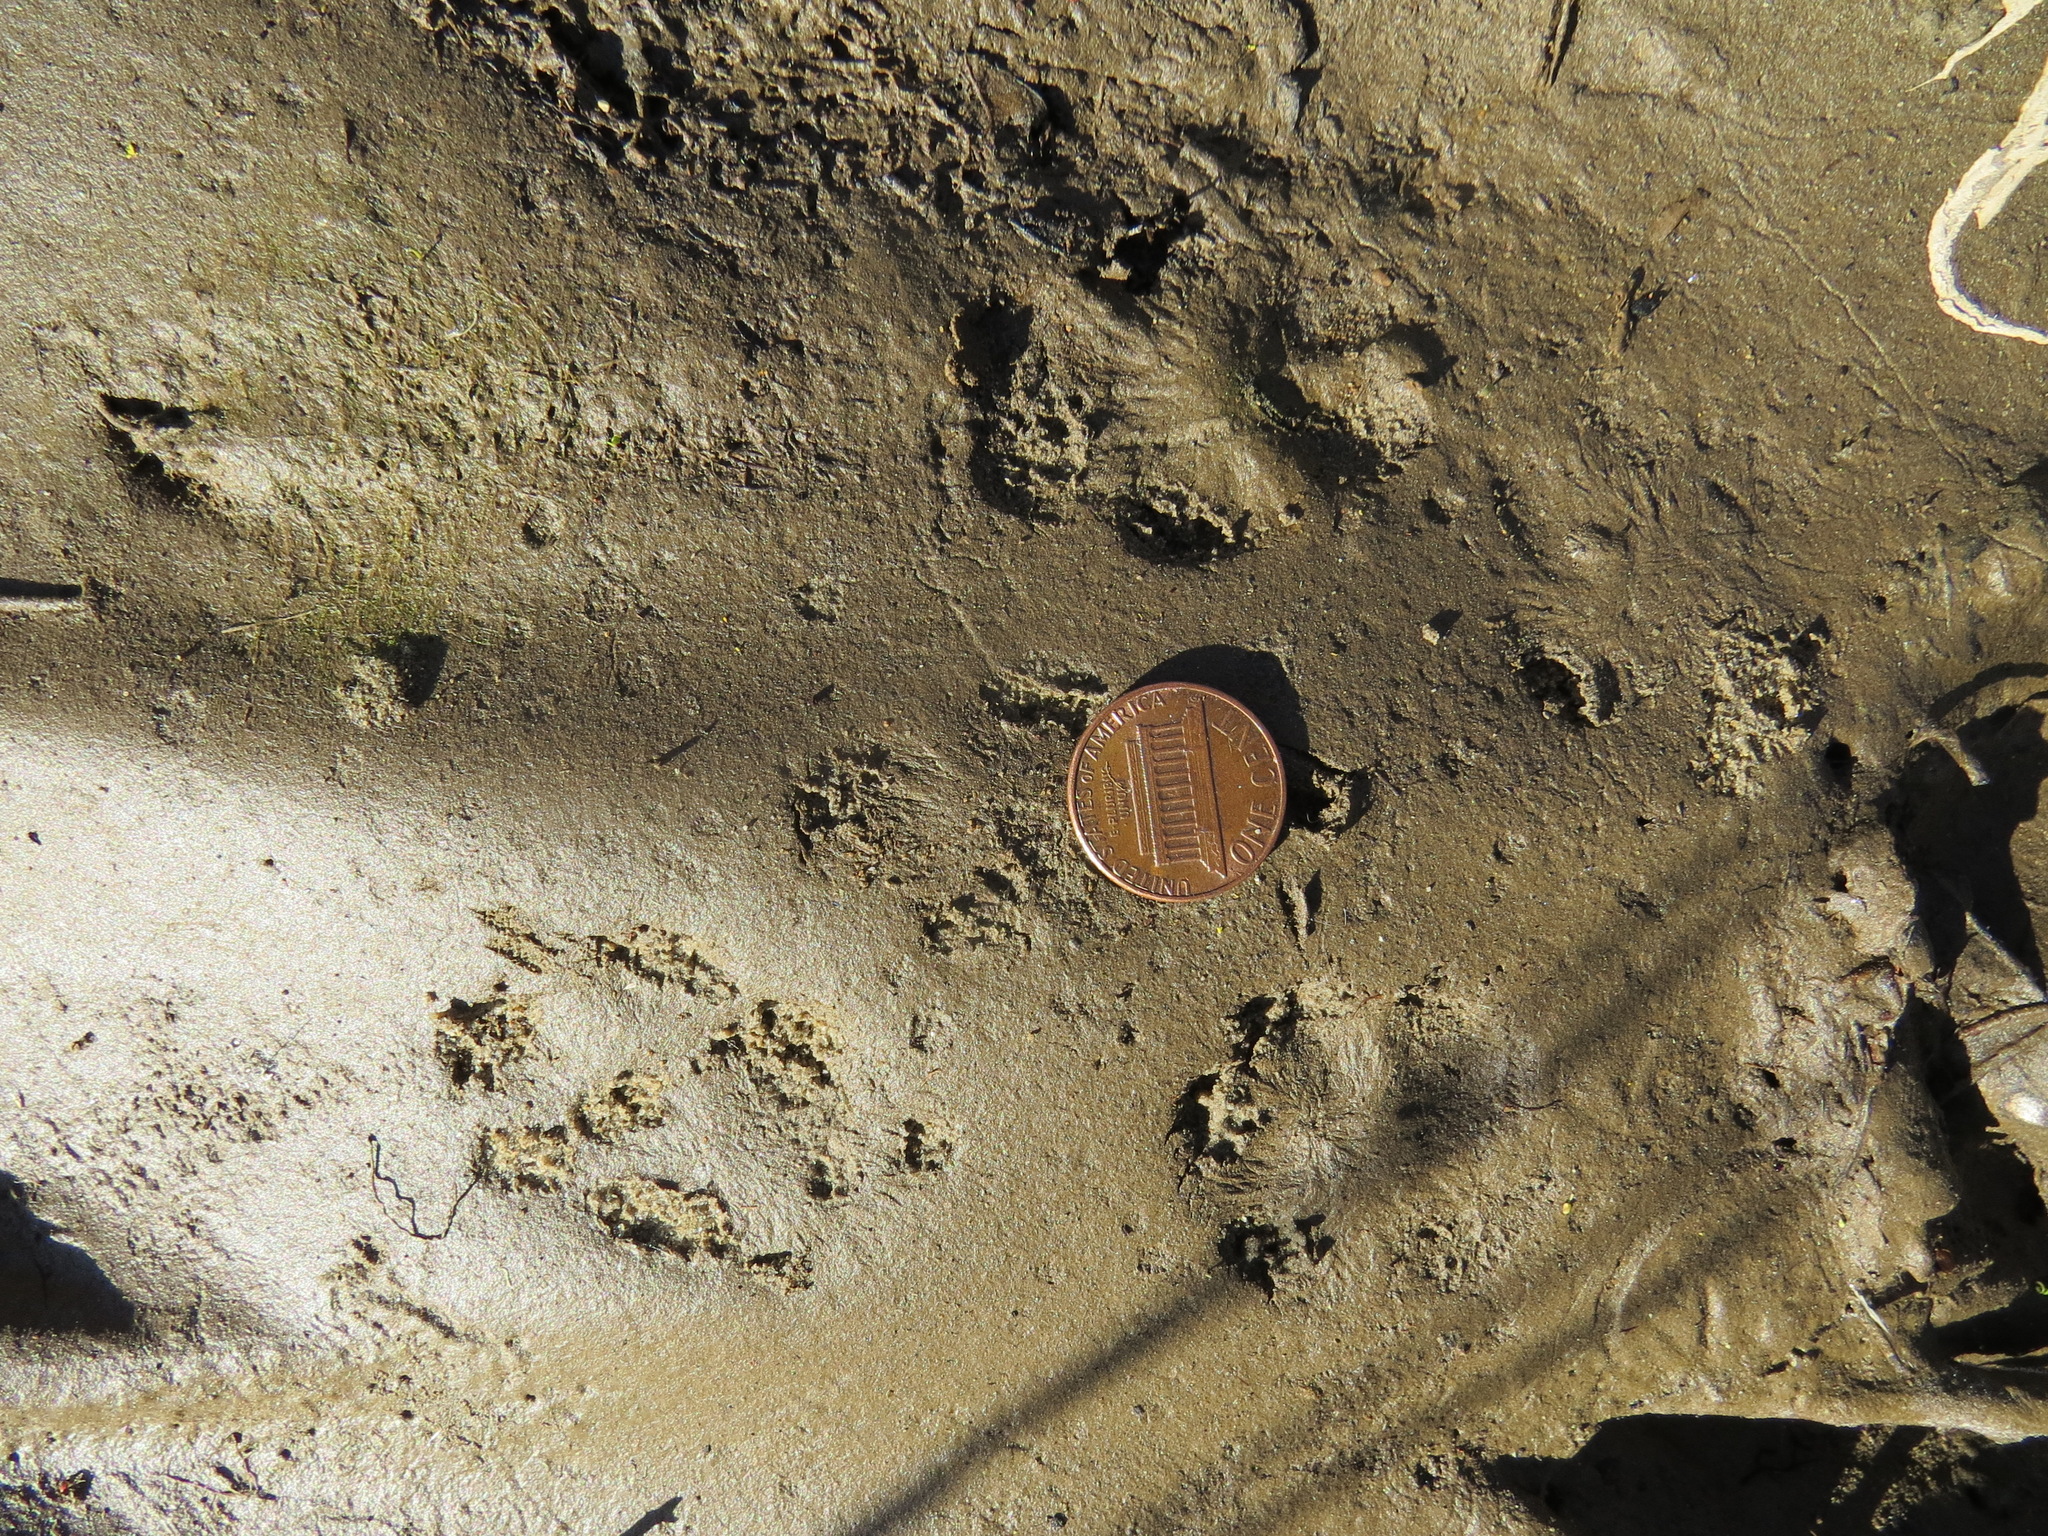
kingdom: Animalia
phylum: Chordata
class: Mammalia
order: Carnivora
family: Canidae
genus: Urocyon
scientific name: Urocyon cinereoargenteus
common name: Gray fox
